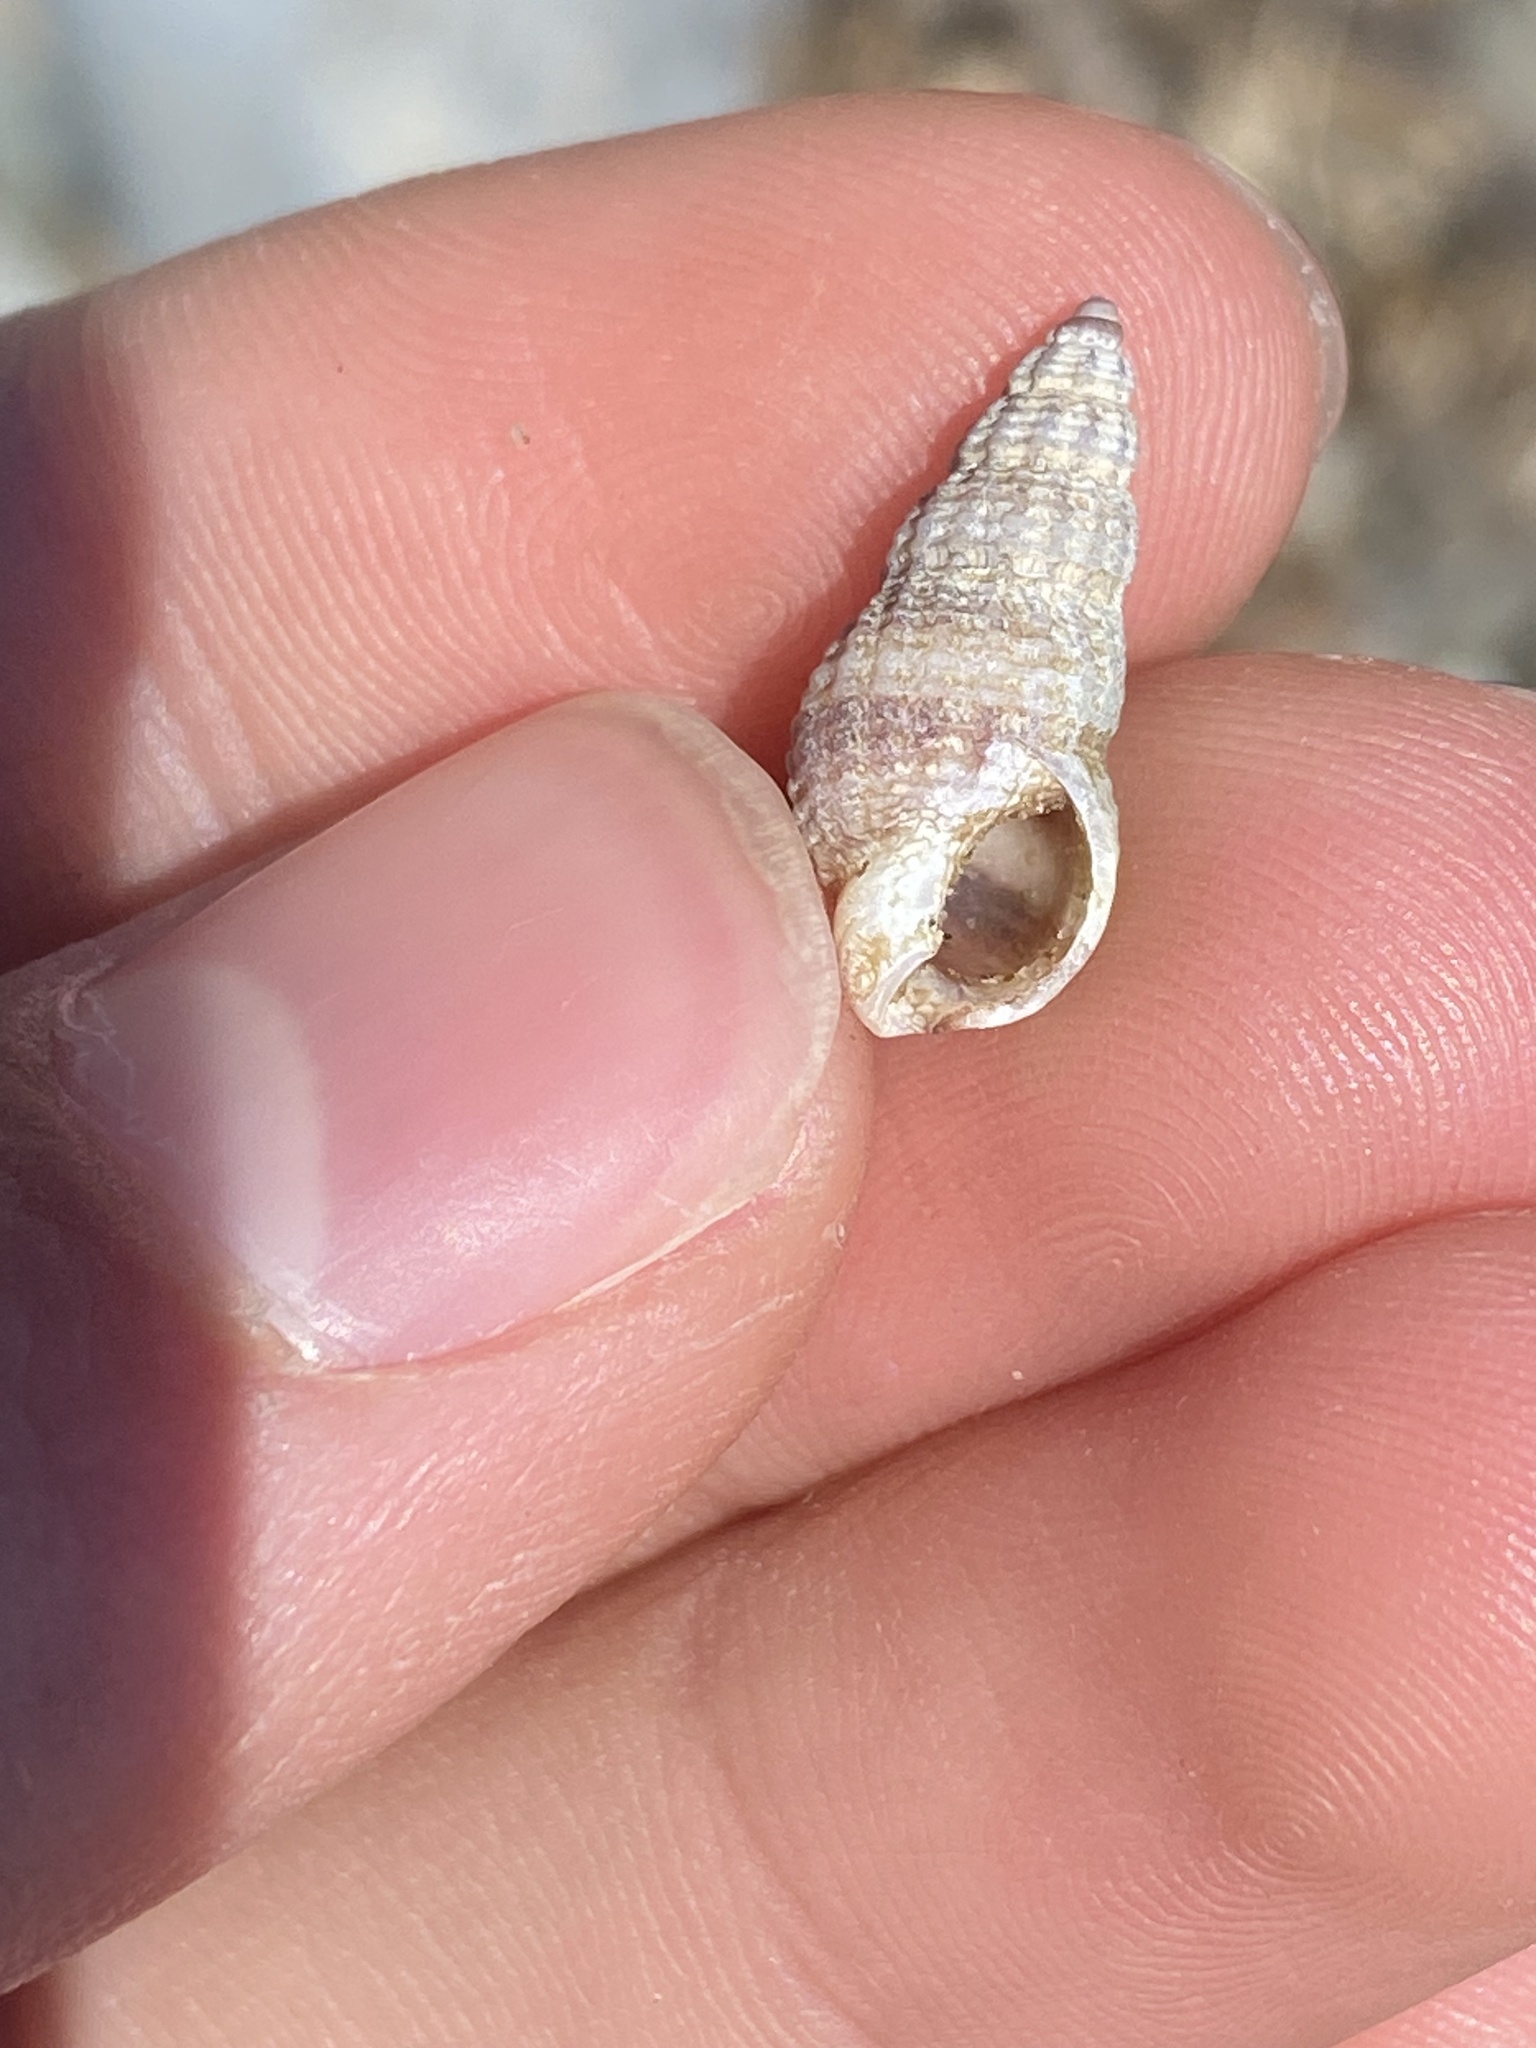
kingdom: Animalia
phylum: Mollusca
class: Gastropoda
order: Neogastropoda
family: Nassariidae
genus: Nassarius
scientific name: Nassarius mendicus
